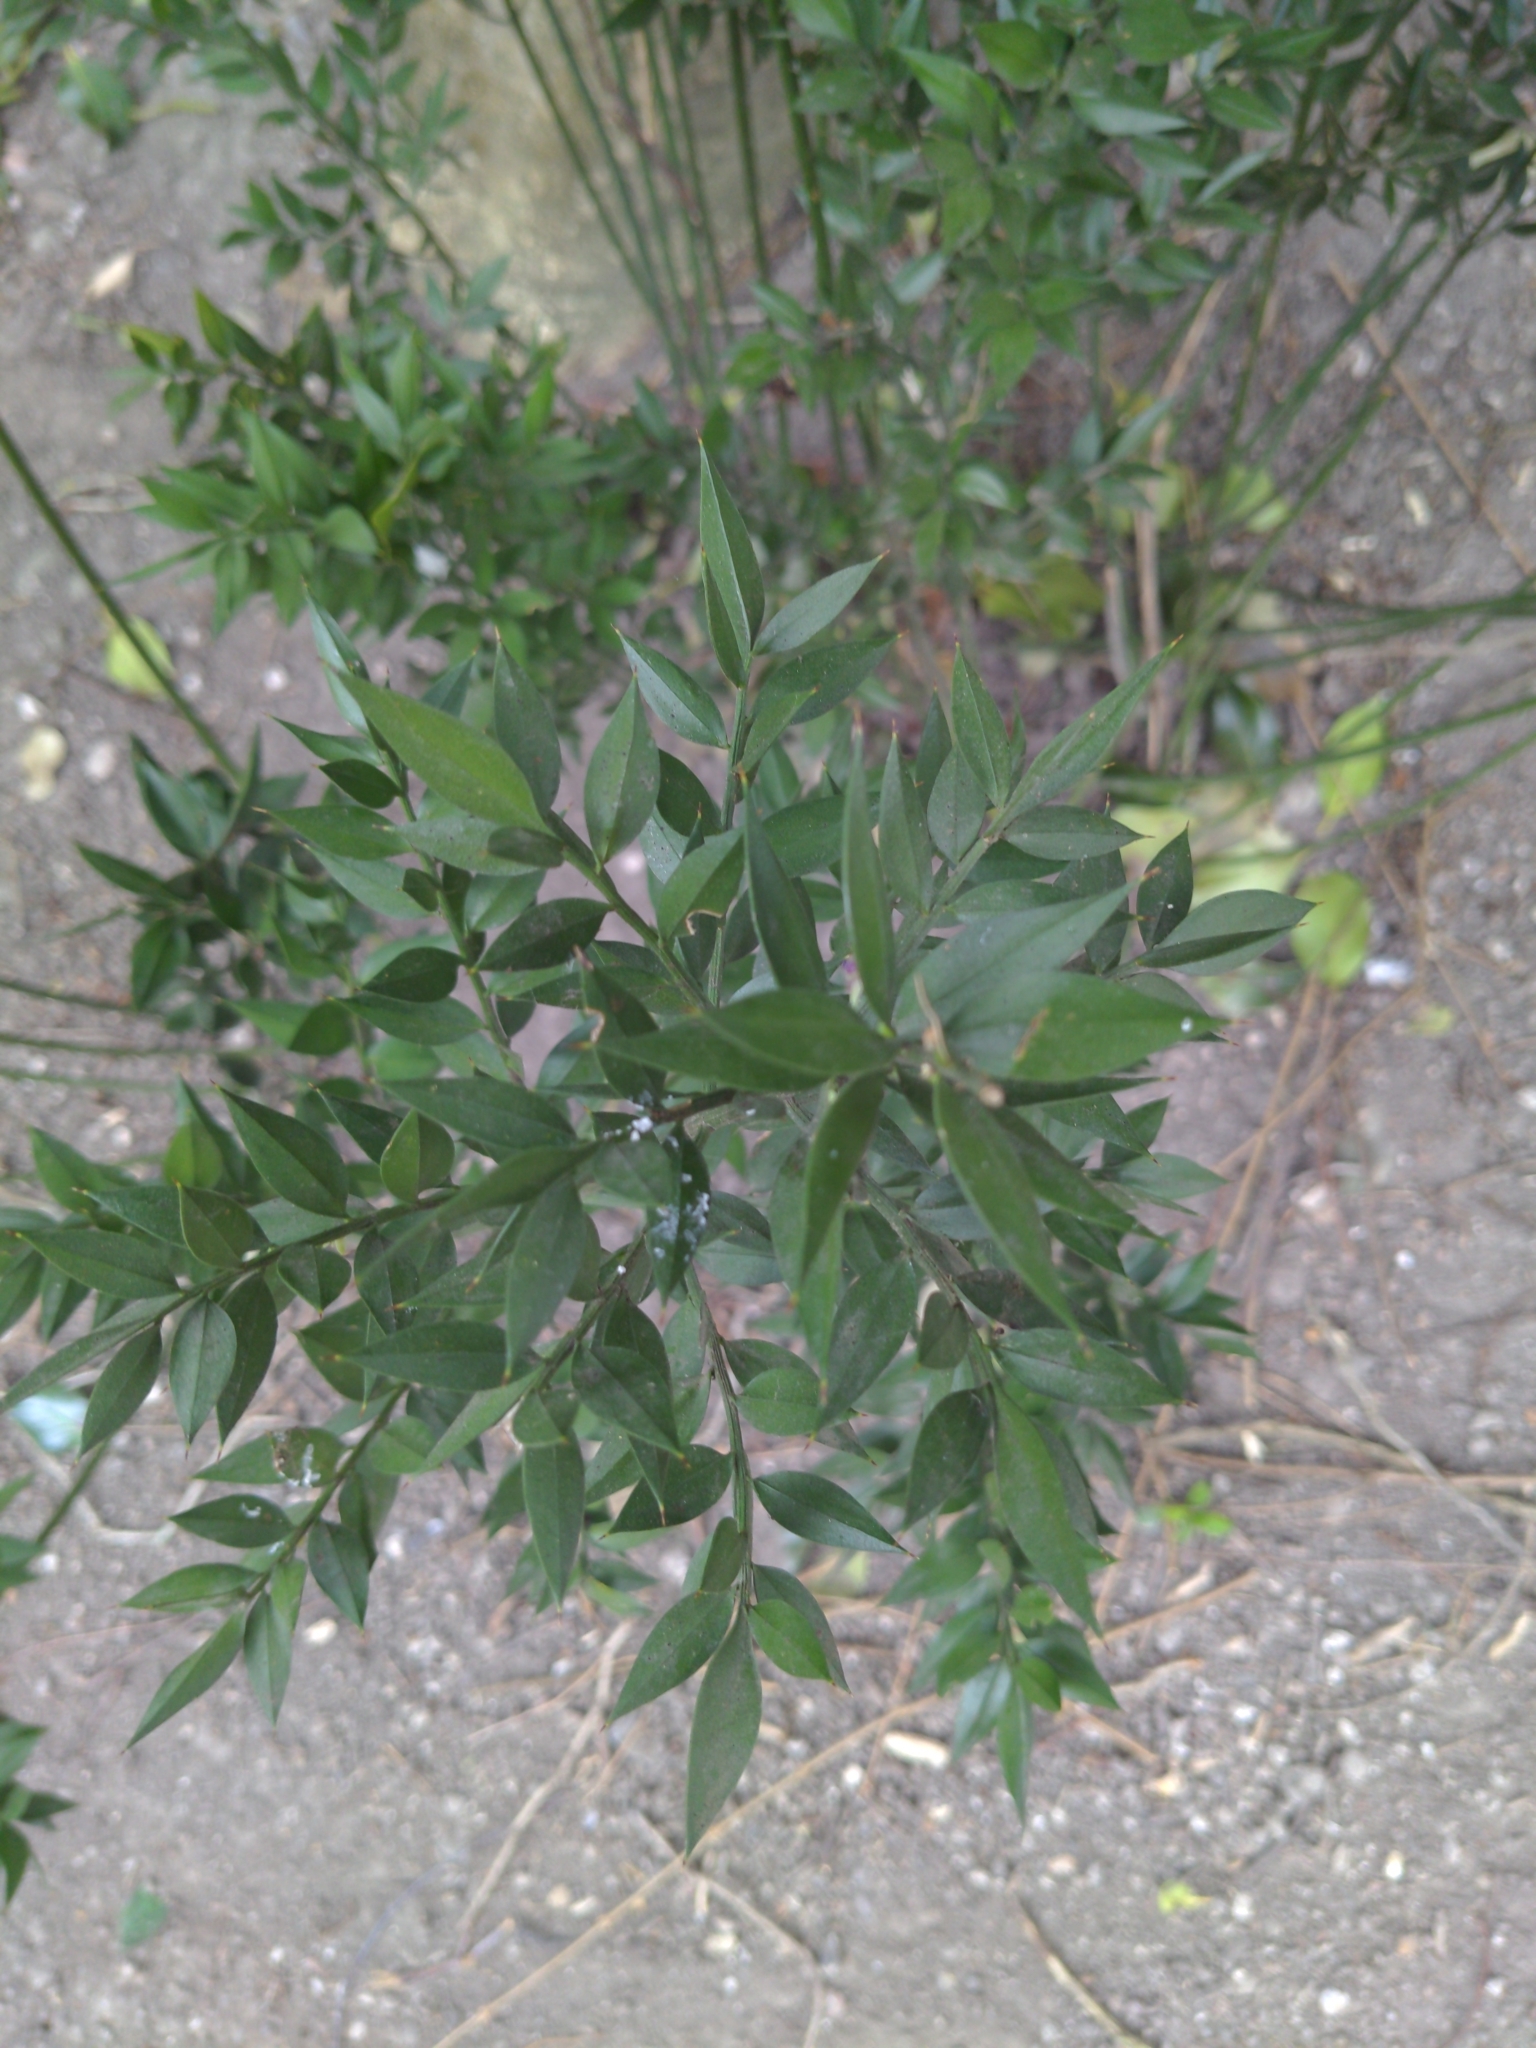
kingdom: Plantae
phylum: Tracheophyta
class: Liliopsida
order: Asparagales
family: Asparagaceae
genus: Ruscus
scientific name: Ruscus aculeatus
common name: Butcher's-broom
